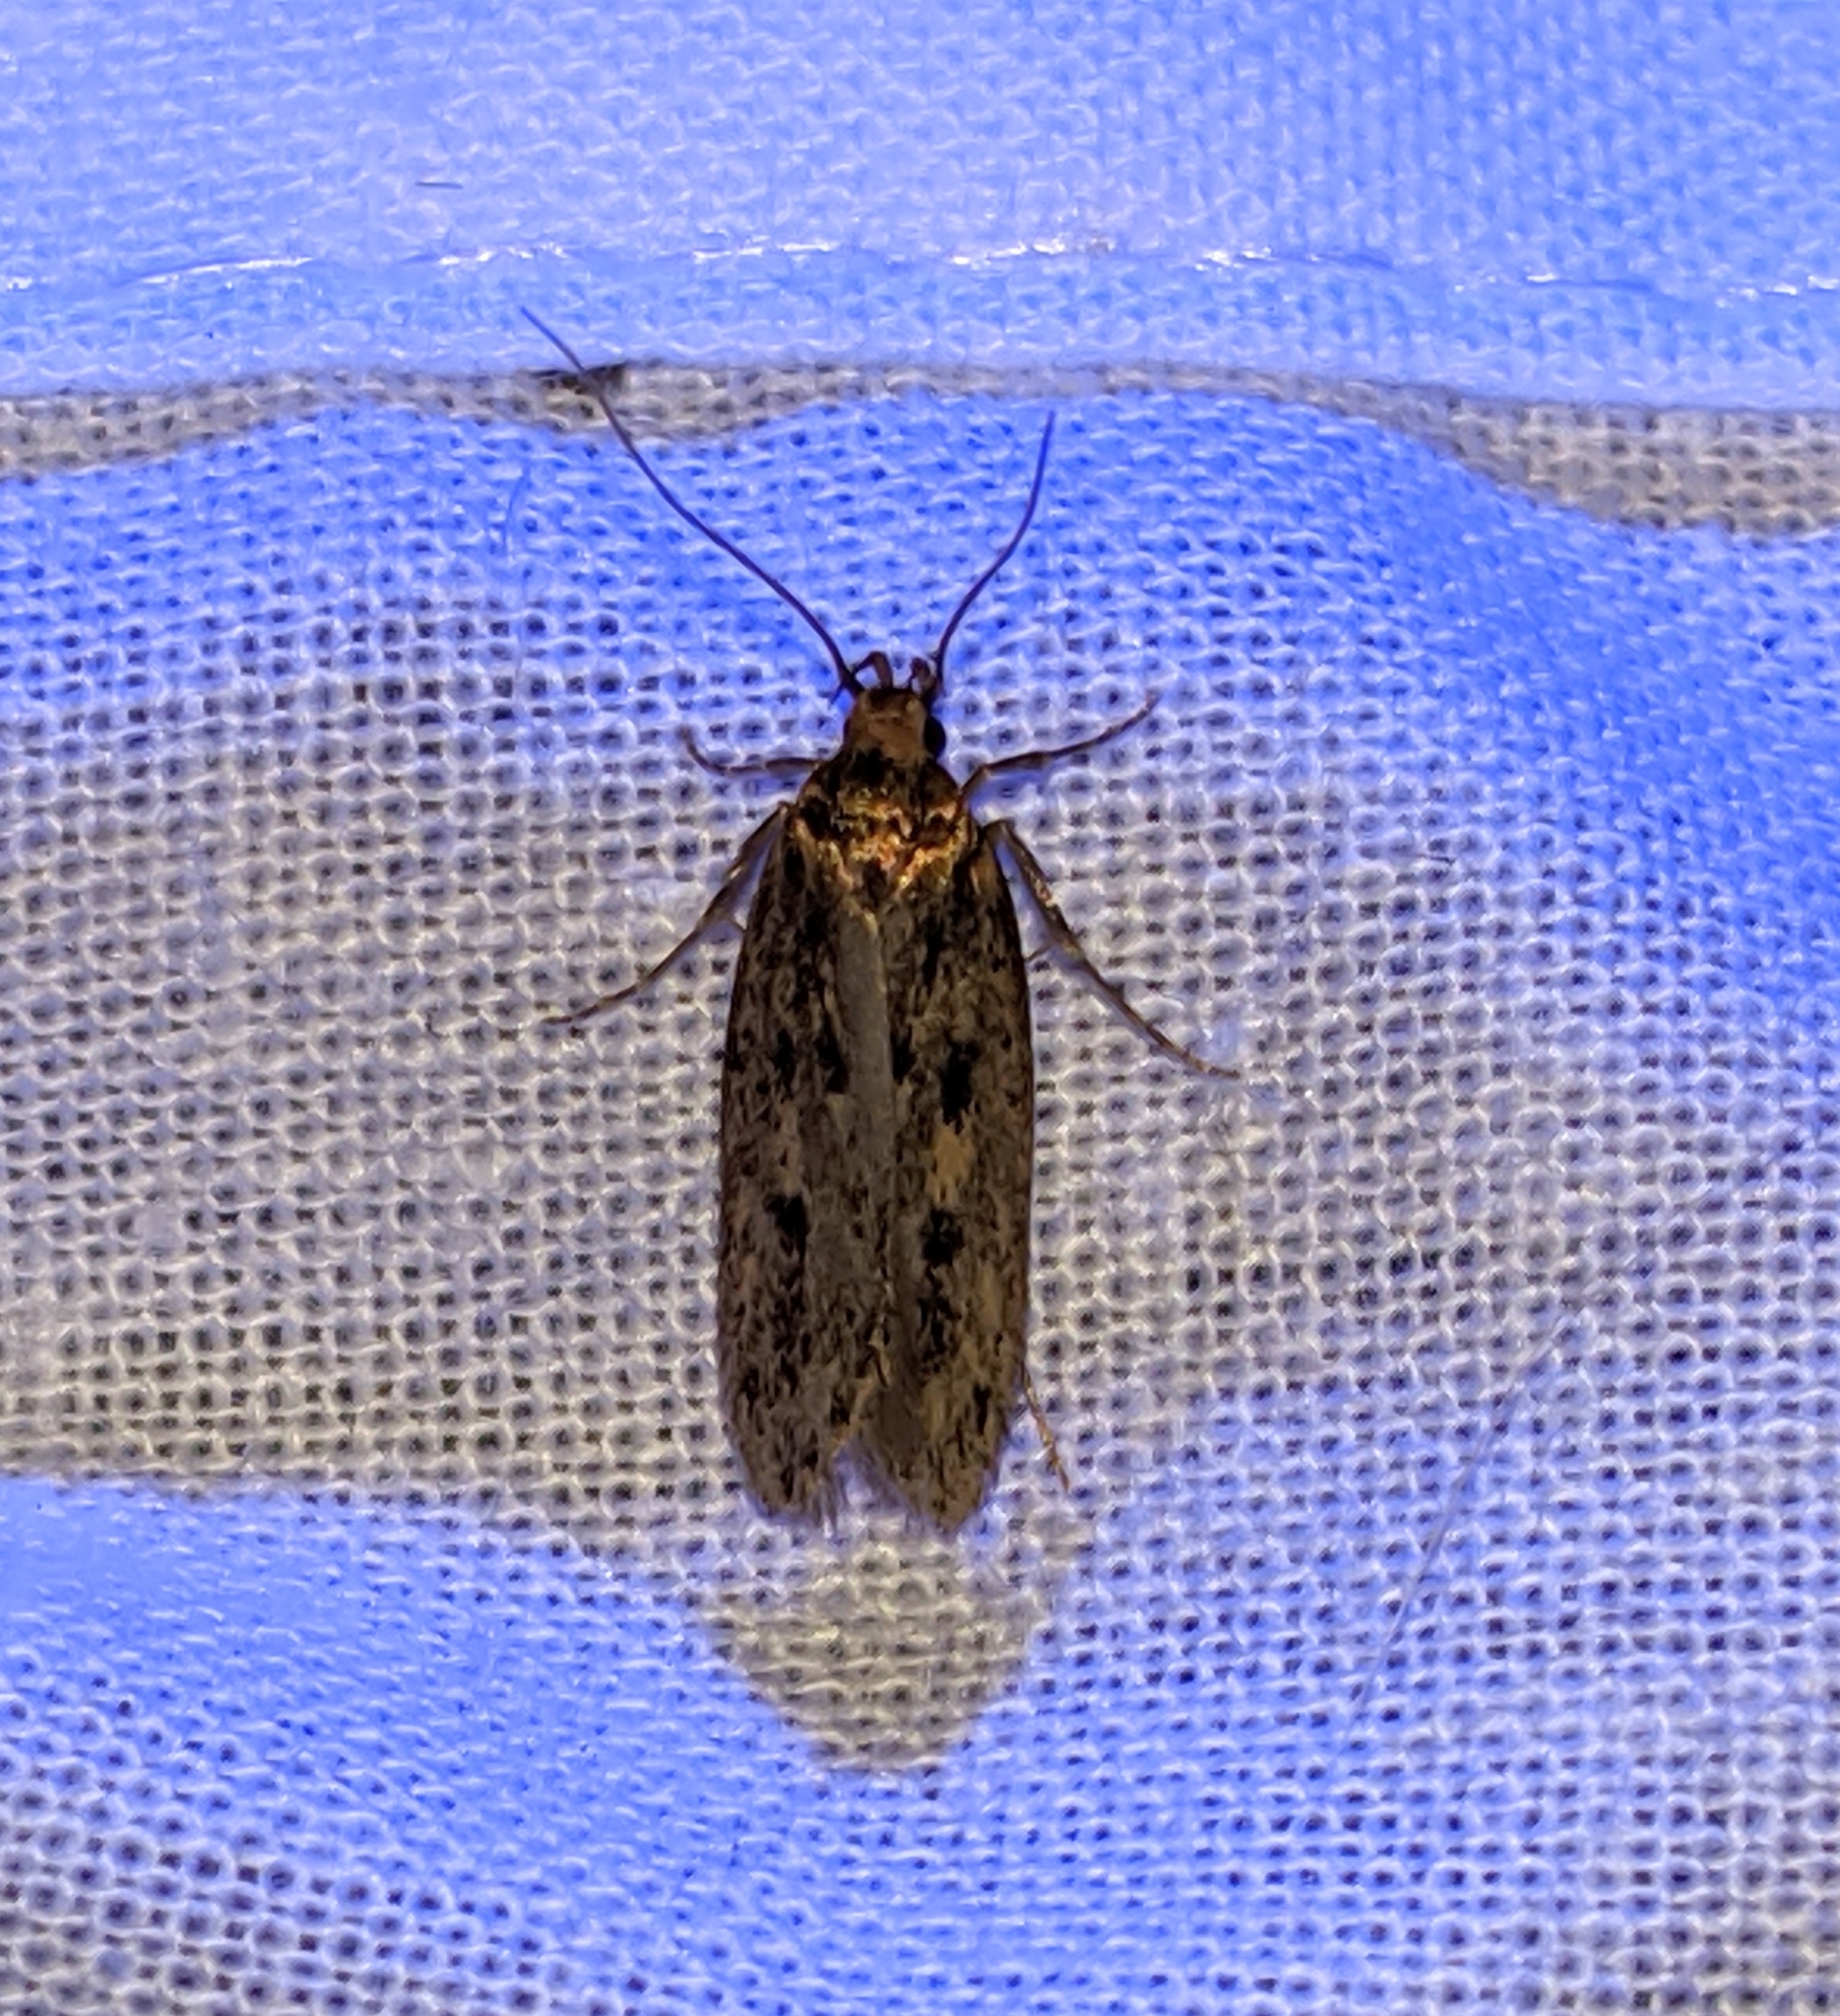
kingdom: Animalia
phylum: Arthropoda
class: Insecta
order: Lepidoptera
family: Oecophoridae
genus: Hofmannophila
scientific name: Hofmannophila pseudospretella
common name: Brown house moth
